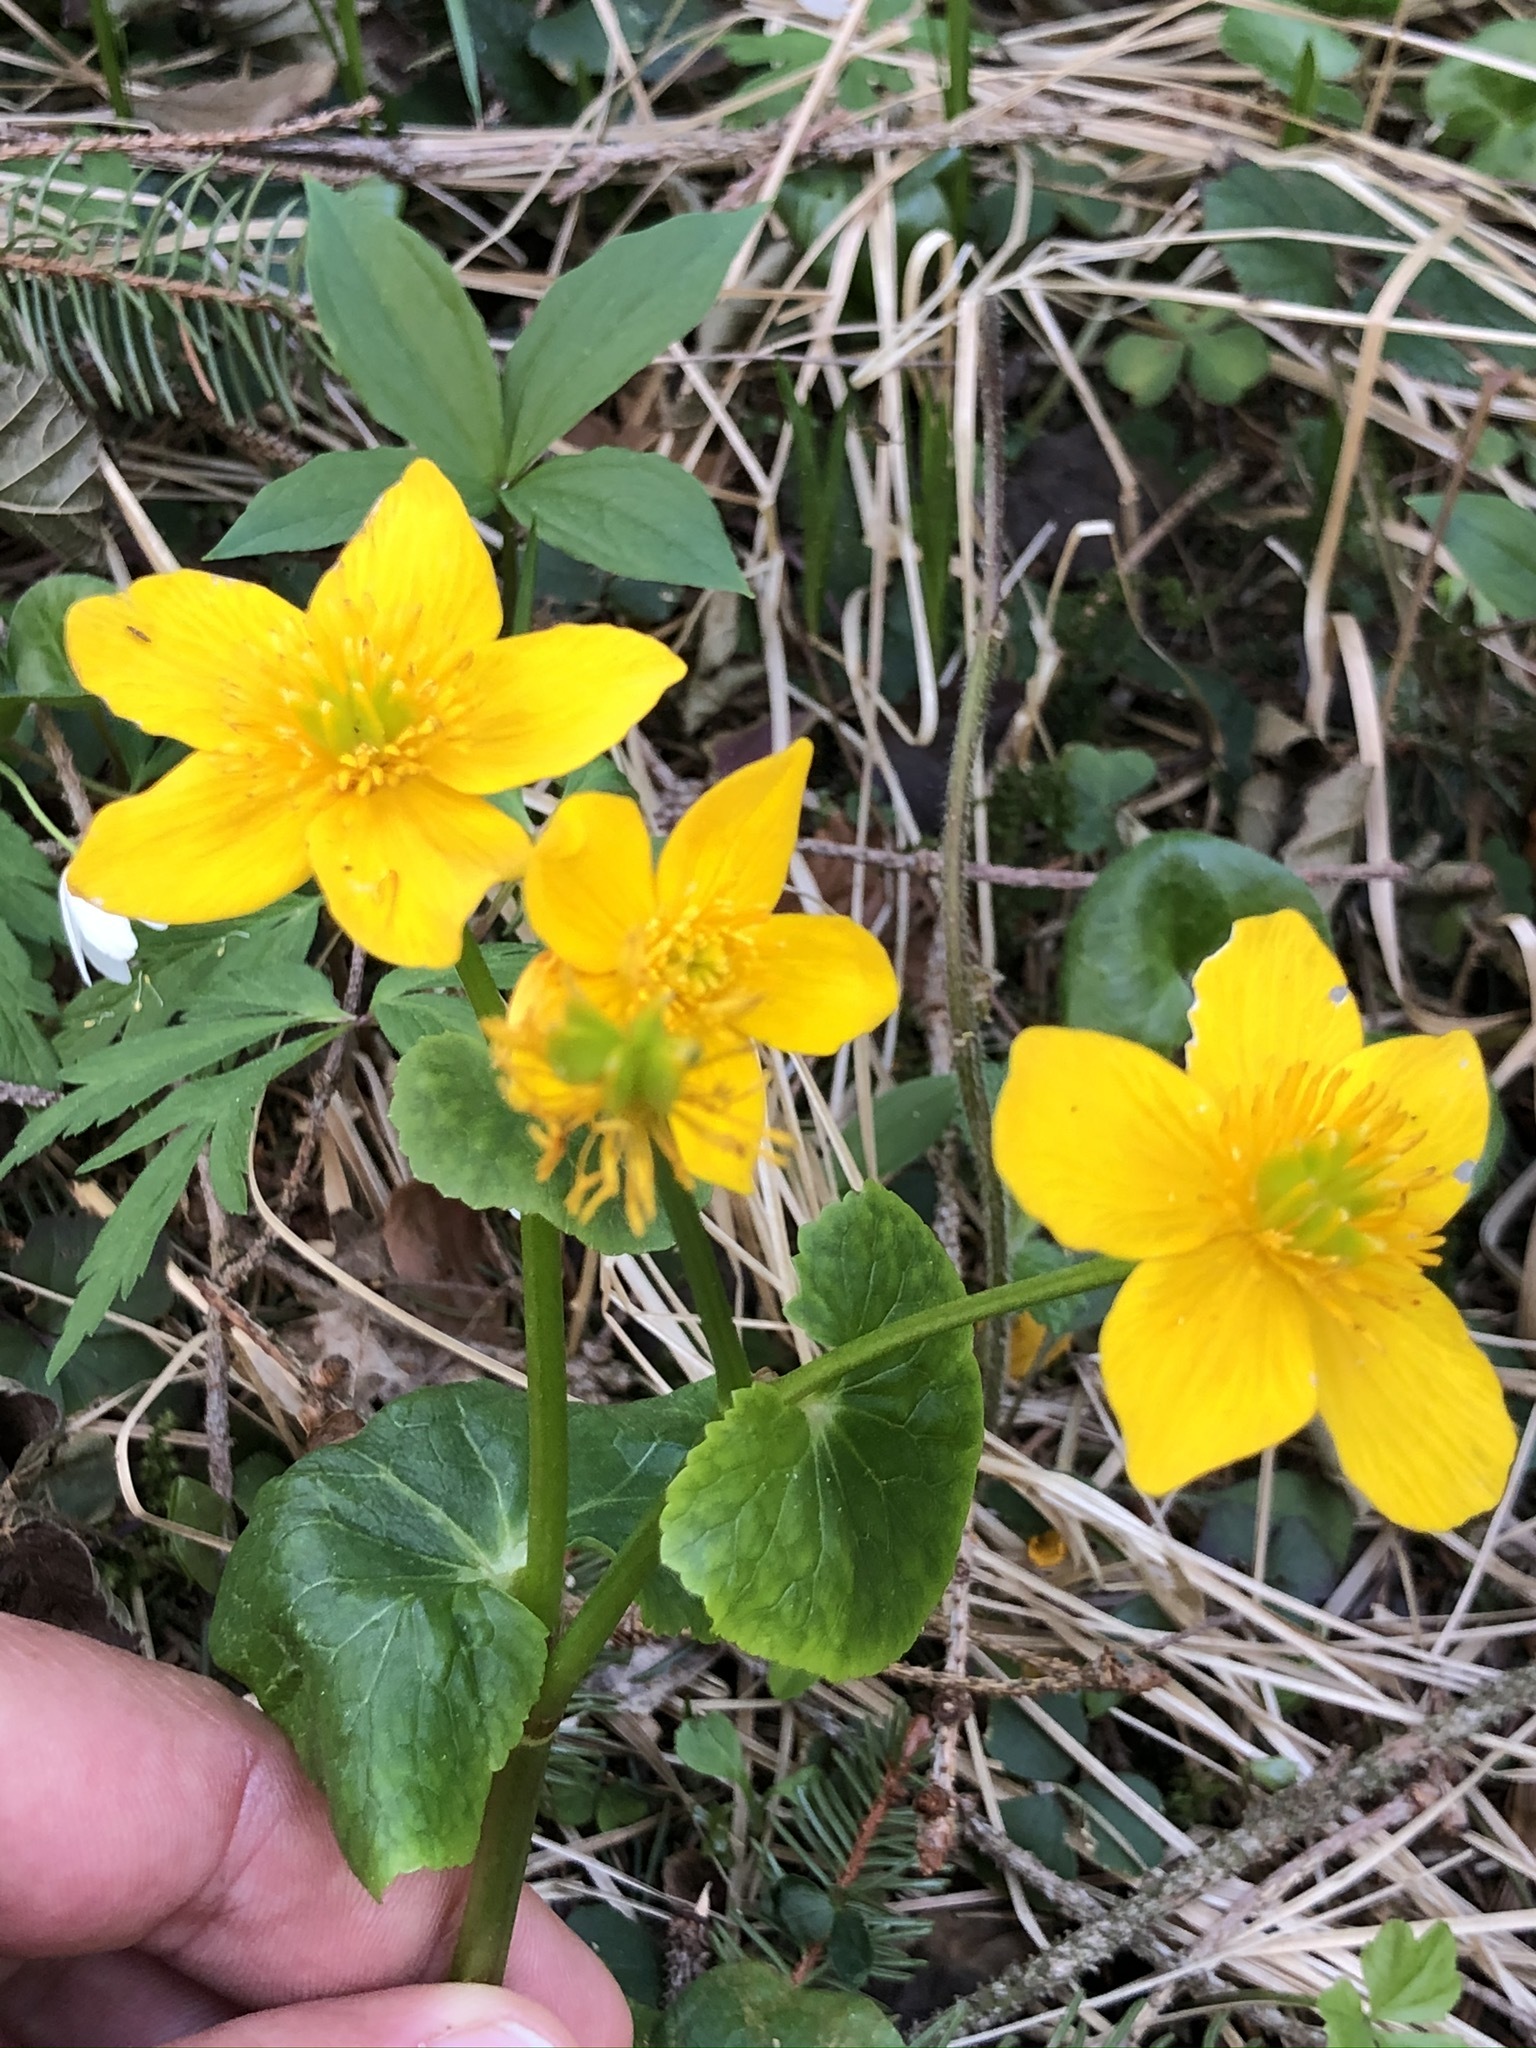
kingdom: Plantae
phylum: Tracheophyta
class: Magnoliopsida
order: Ranunculales
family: Ranunculaceae
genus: Caltha
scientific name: Caltha palustris
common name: Marsh marigold
